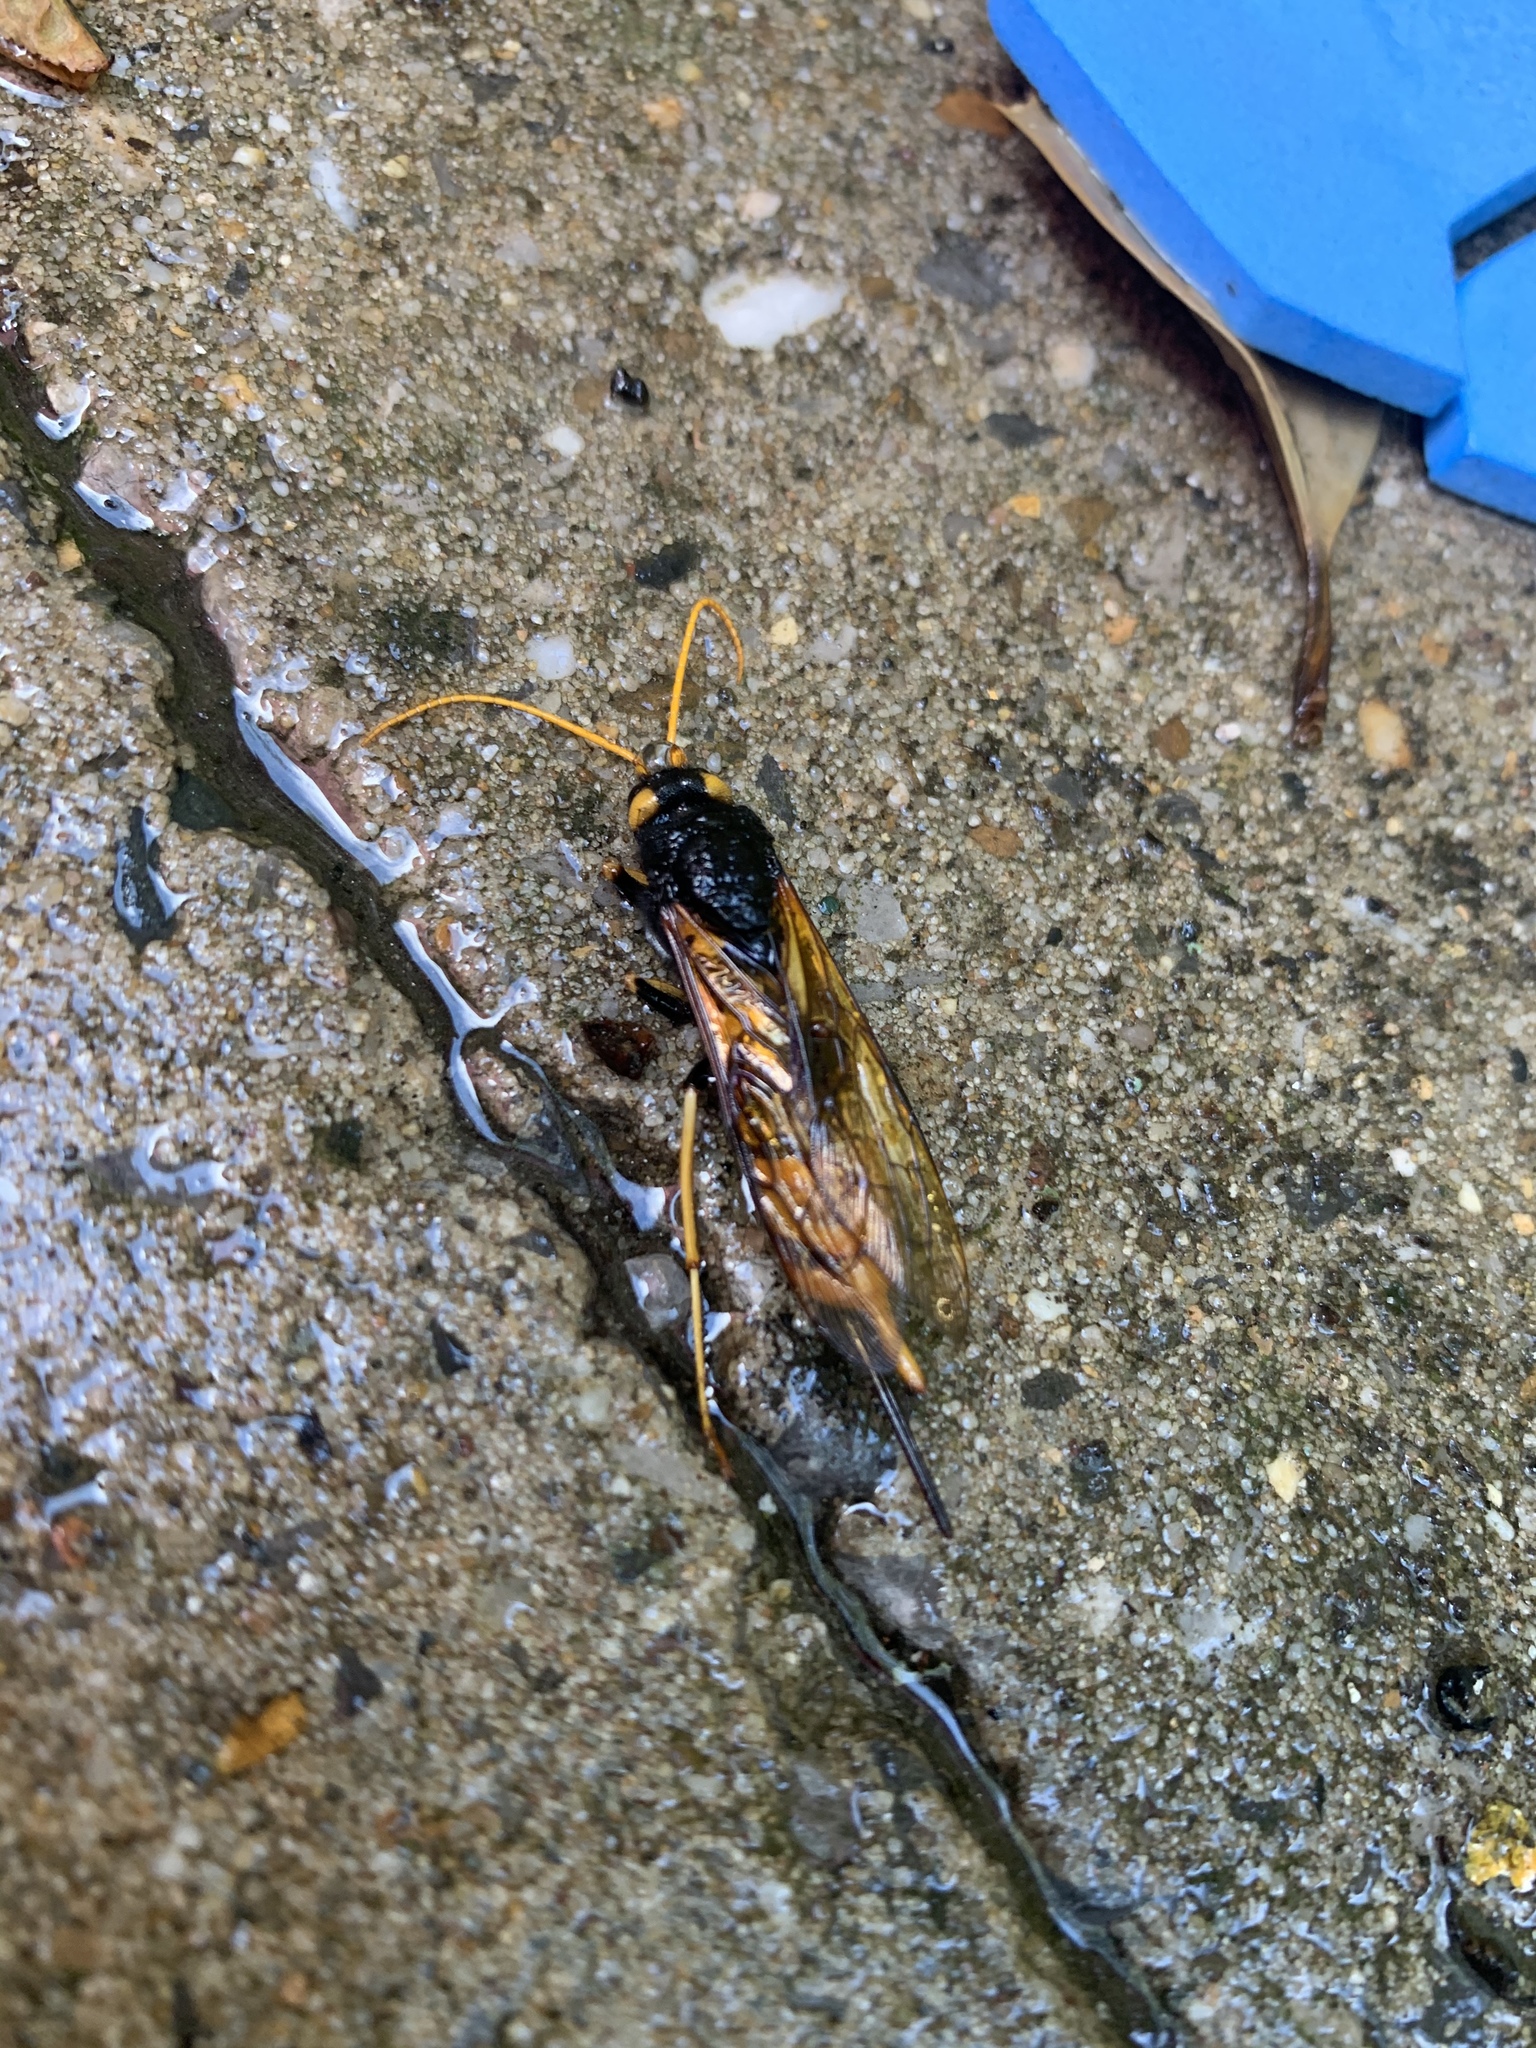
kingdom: Animalia
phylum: Arthropoda
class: Insecta
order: Hymenoptera
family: Siricidae
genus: Urocerus
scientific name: Urocerus gigas
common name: Giant woodwasp
